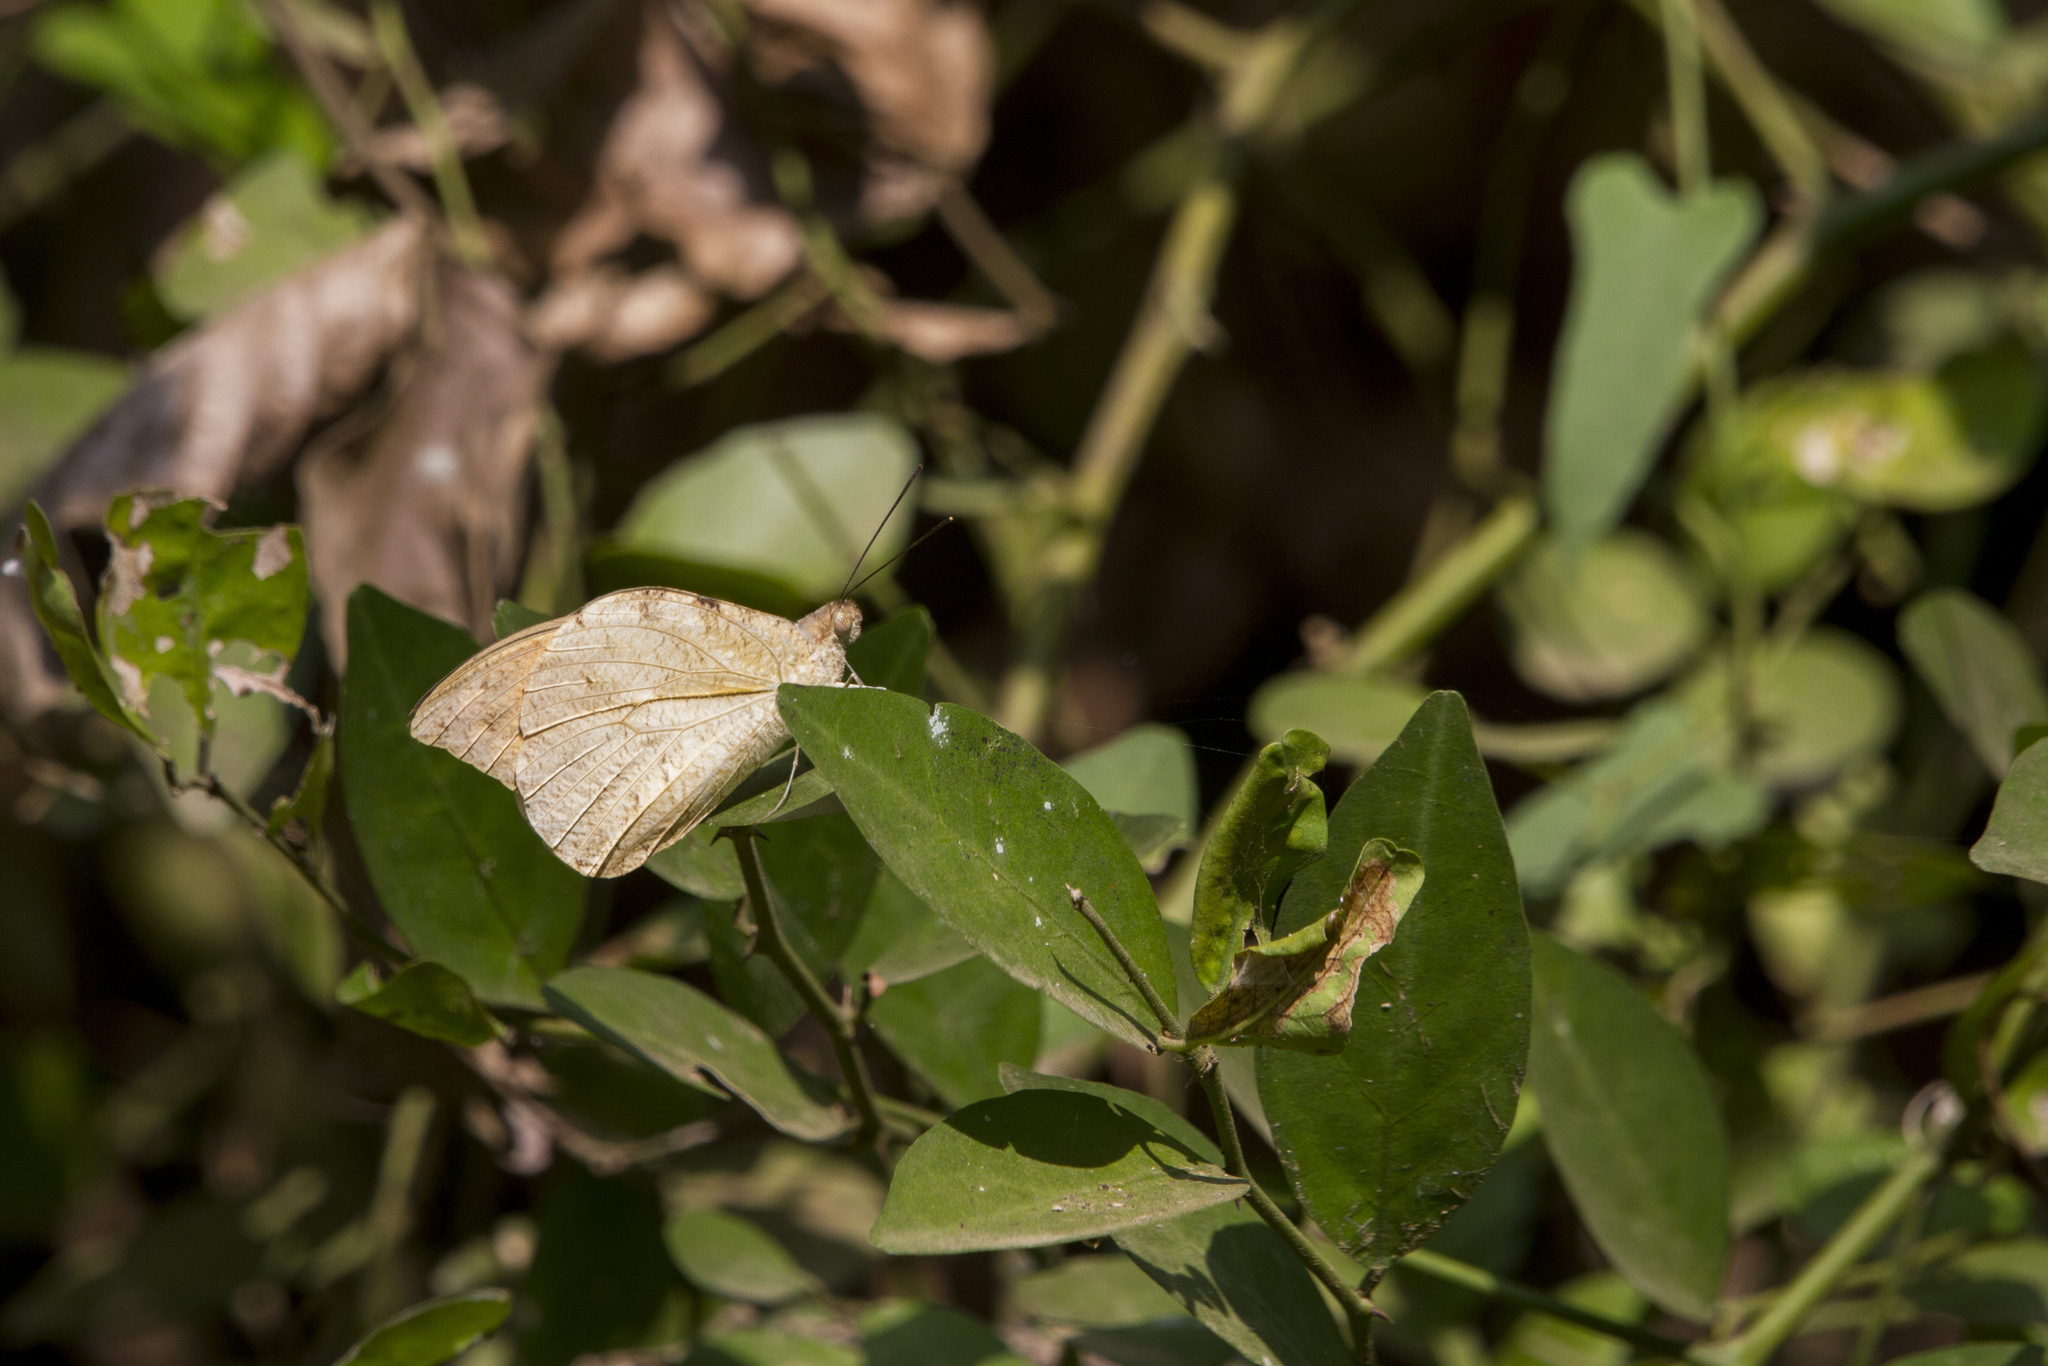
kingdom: Animalia
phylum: Arthropoda
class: Insecta
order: Lepidoptera
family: Pieridae
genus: Hebomoia
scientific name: Hebomoia glaucippe
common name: Great orange tip
